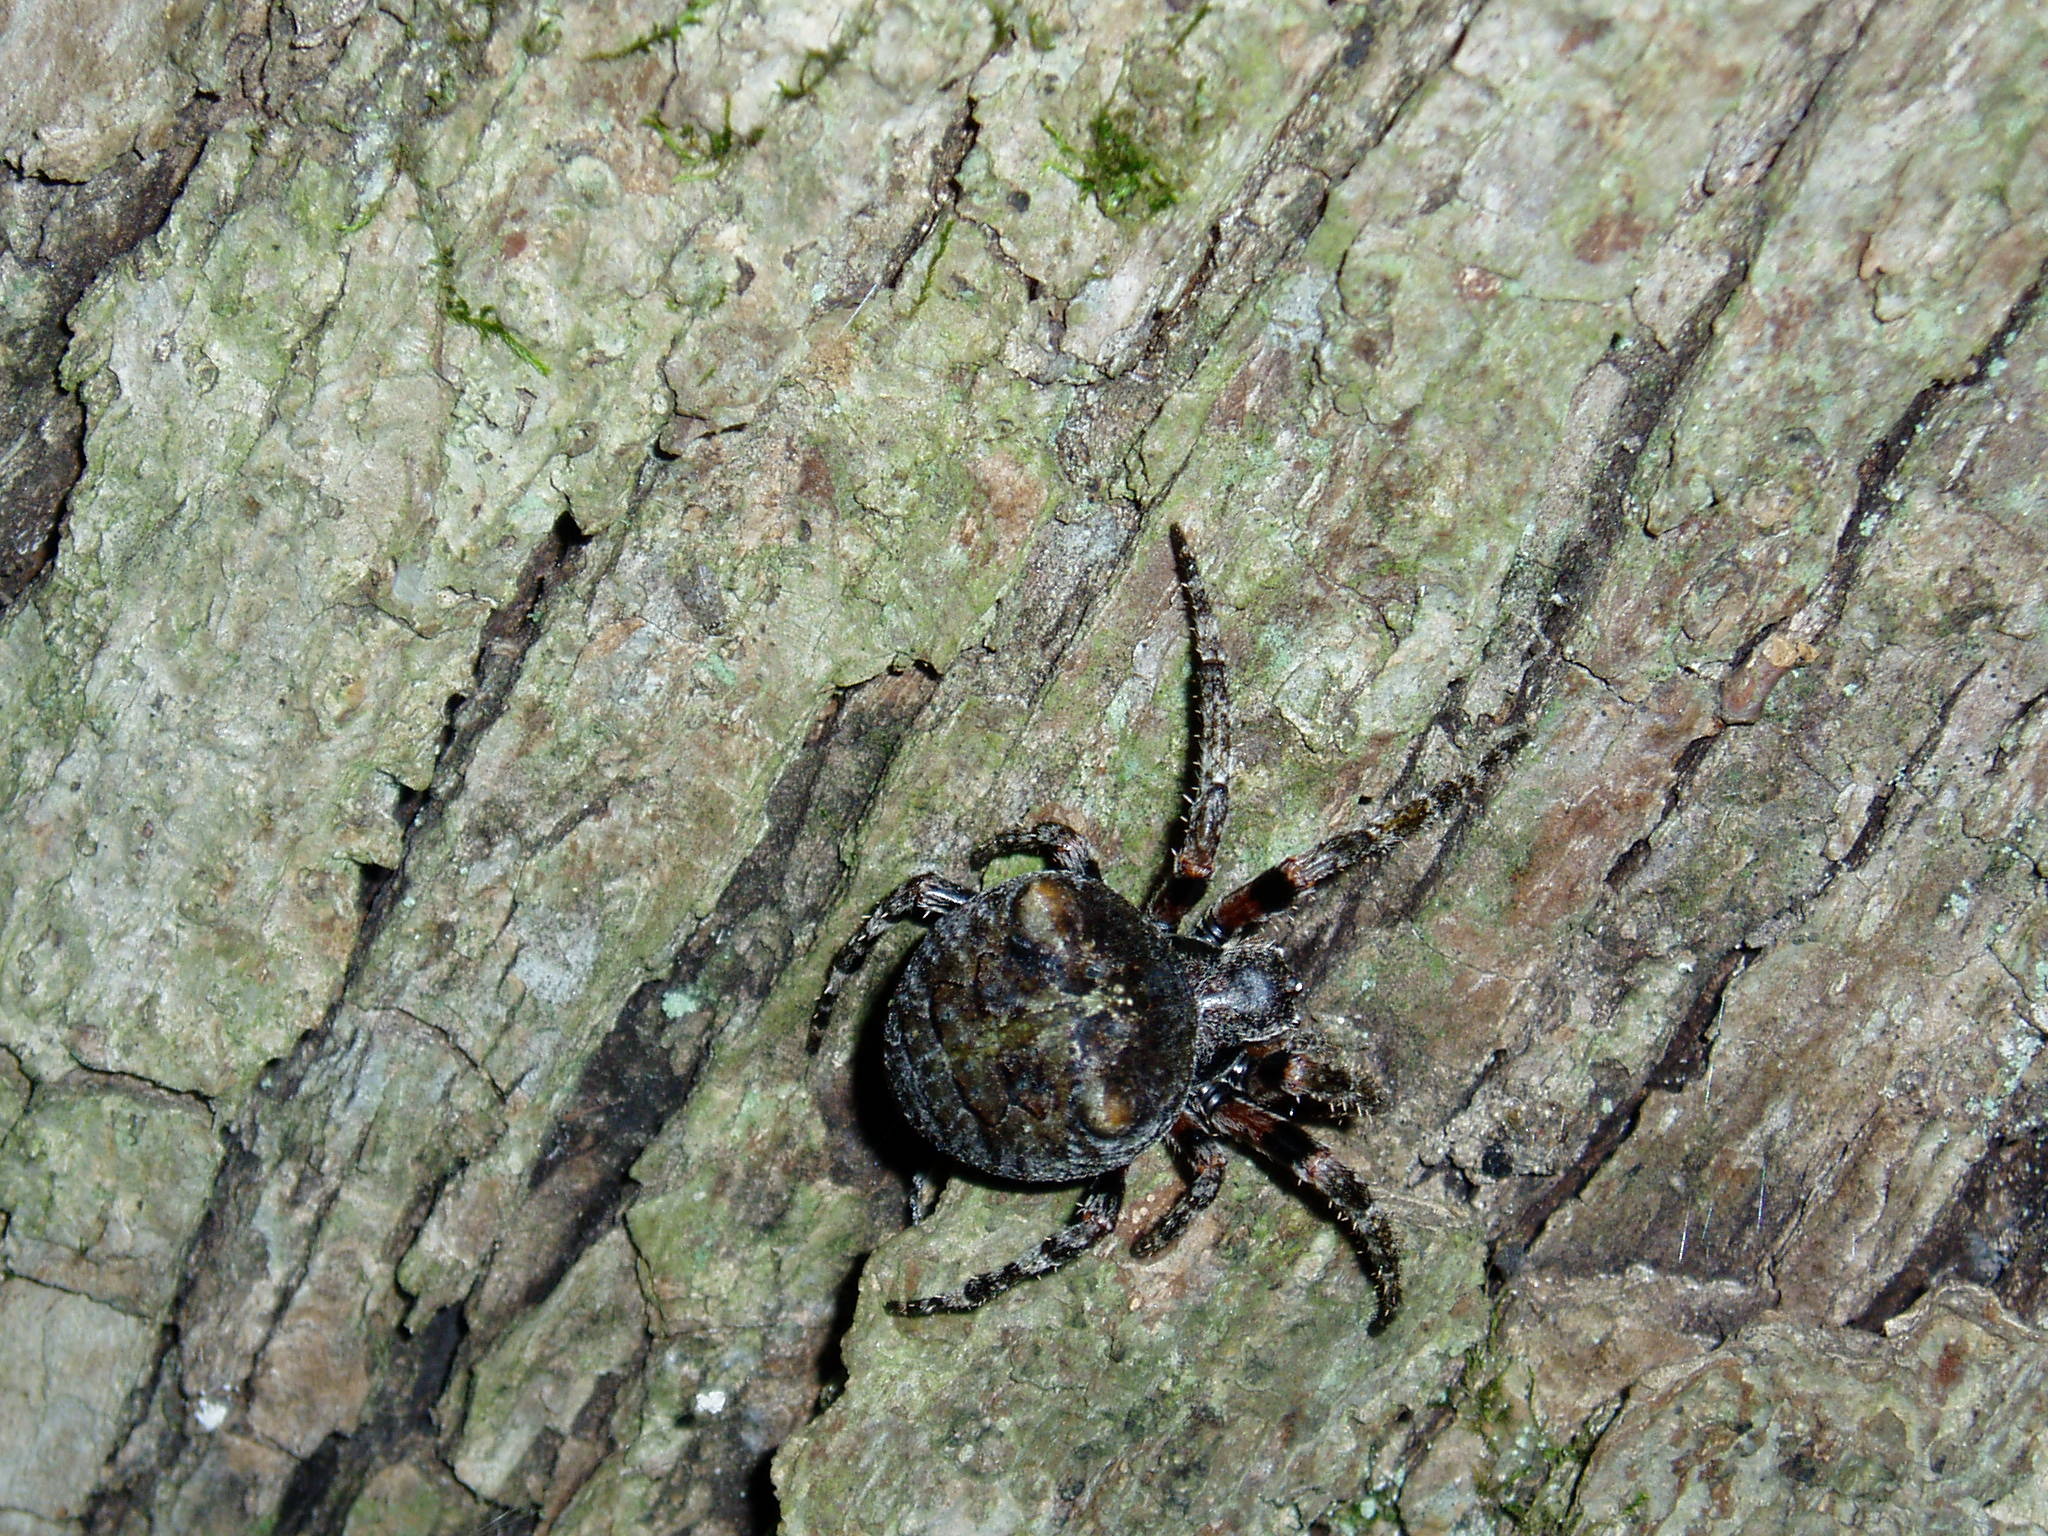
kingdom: Animalia
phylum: Arthropoda
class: Arachnida
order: Araneae
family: Araneidae
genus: Araneus
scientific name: Araneus bicentenarius
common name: Giant lichen orbweaver
